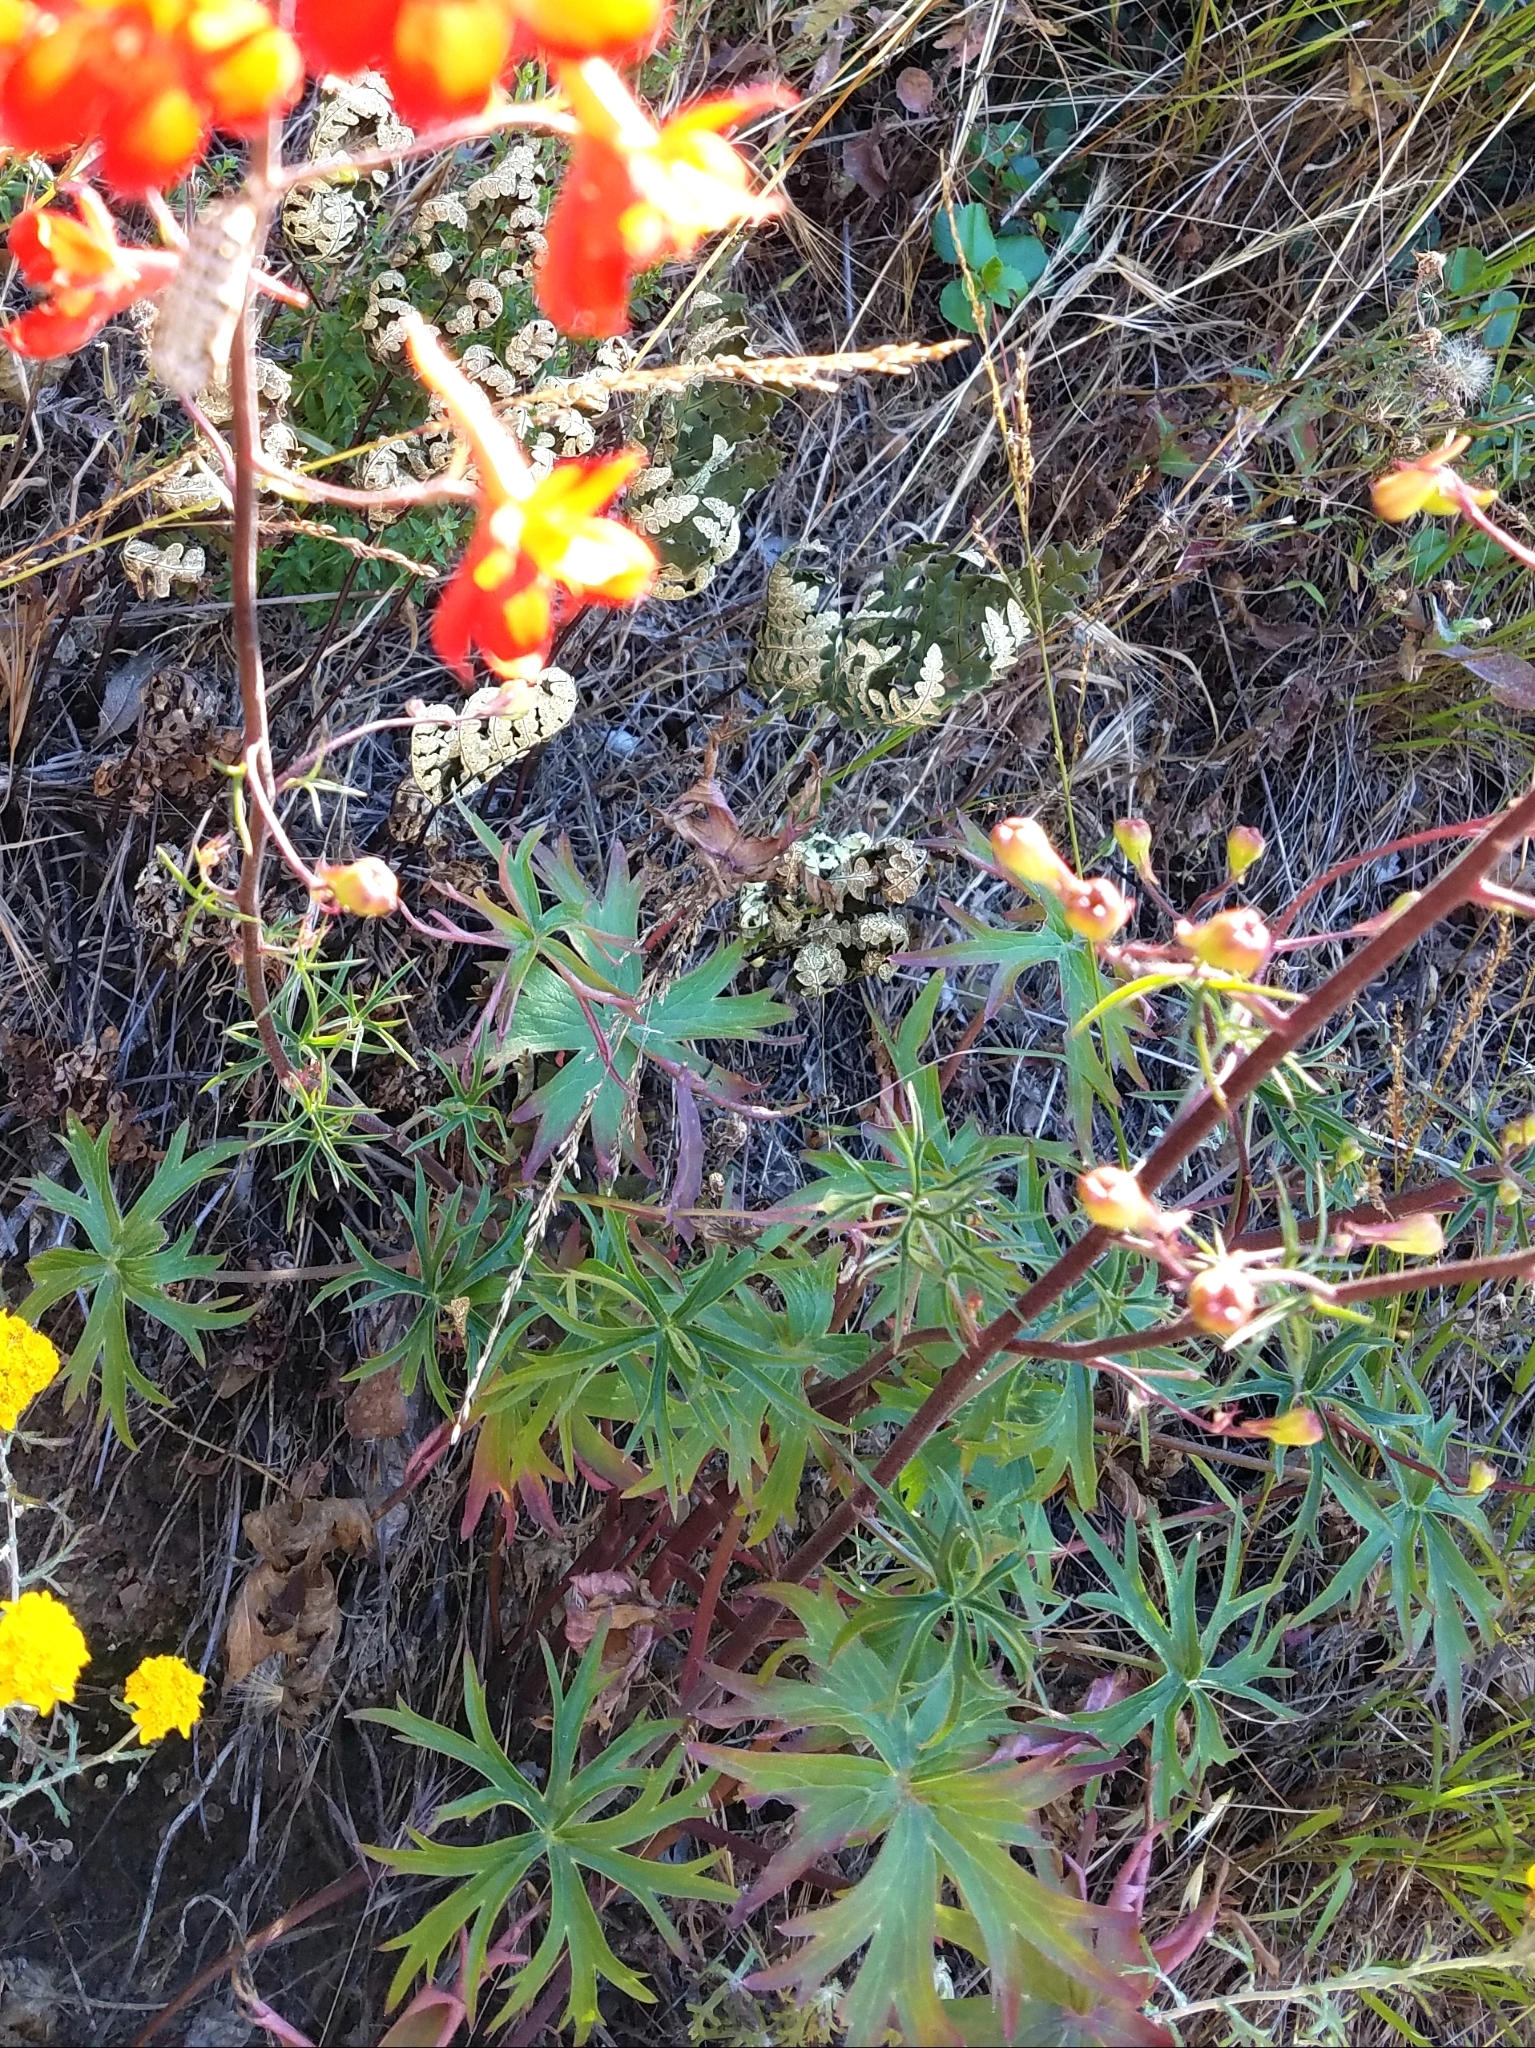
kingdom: Plantae
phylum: Tracheophyta
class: Magnoliopsida
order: Ranunculales
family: Ranunculaceae
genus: Delphinium
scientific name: Delphinium cardinale
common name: Scarlet larkspur
